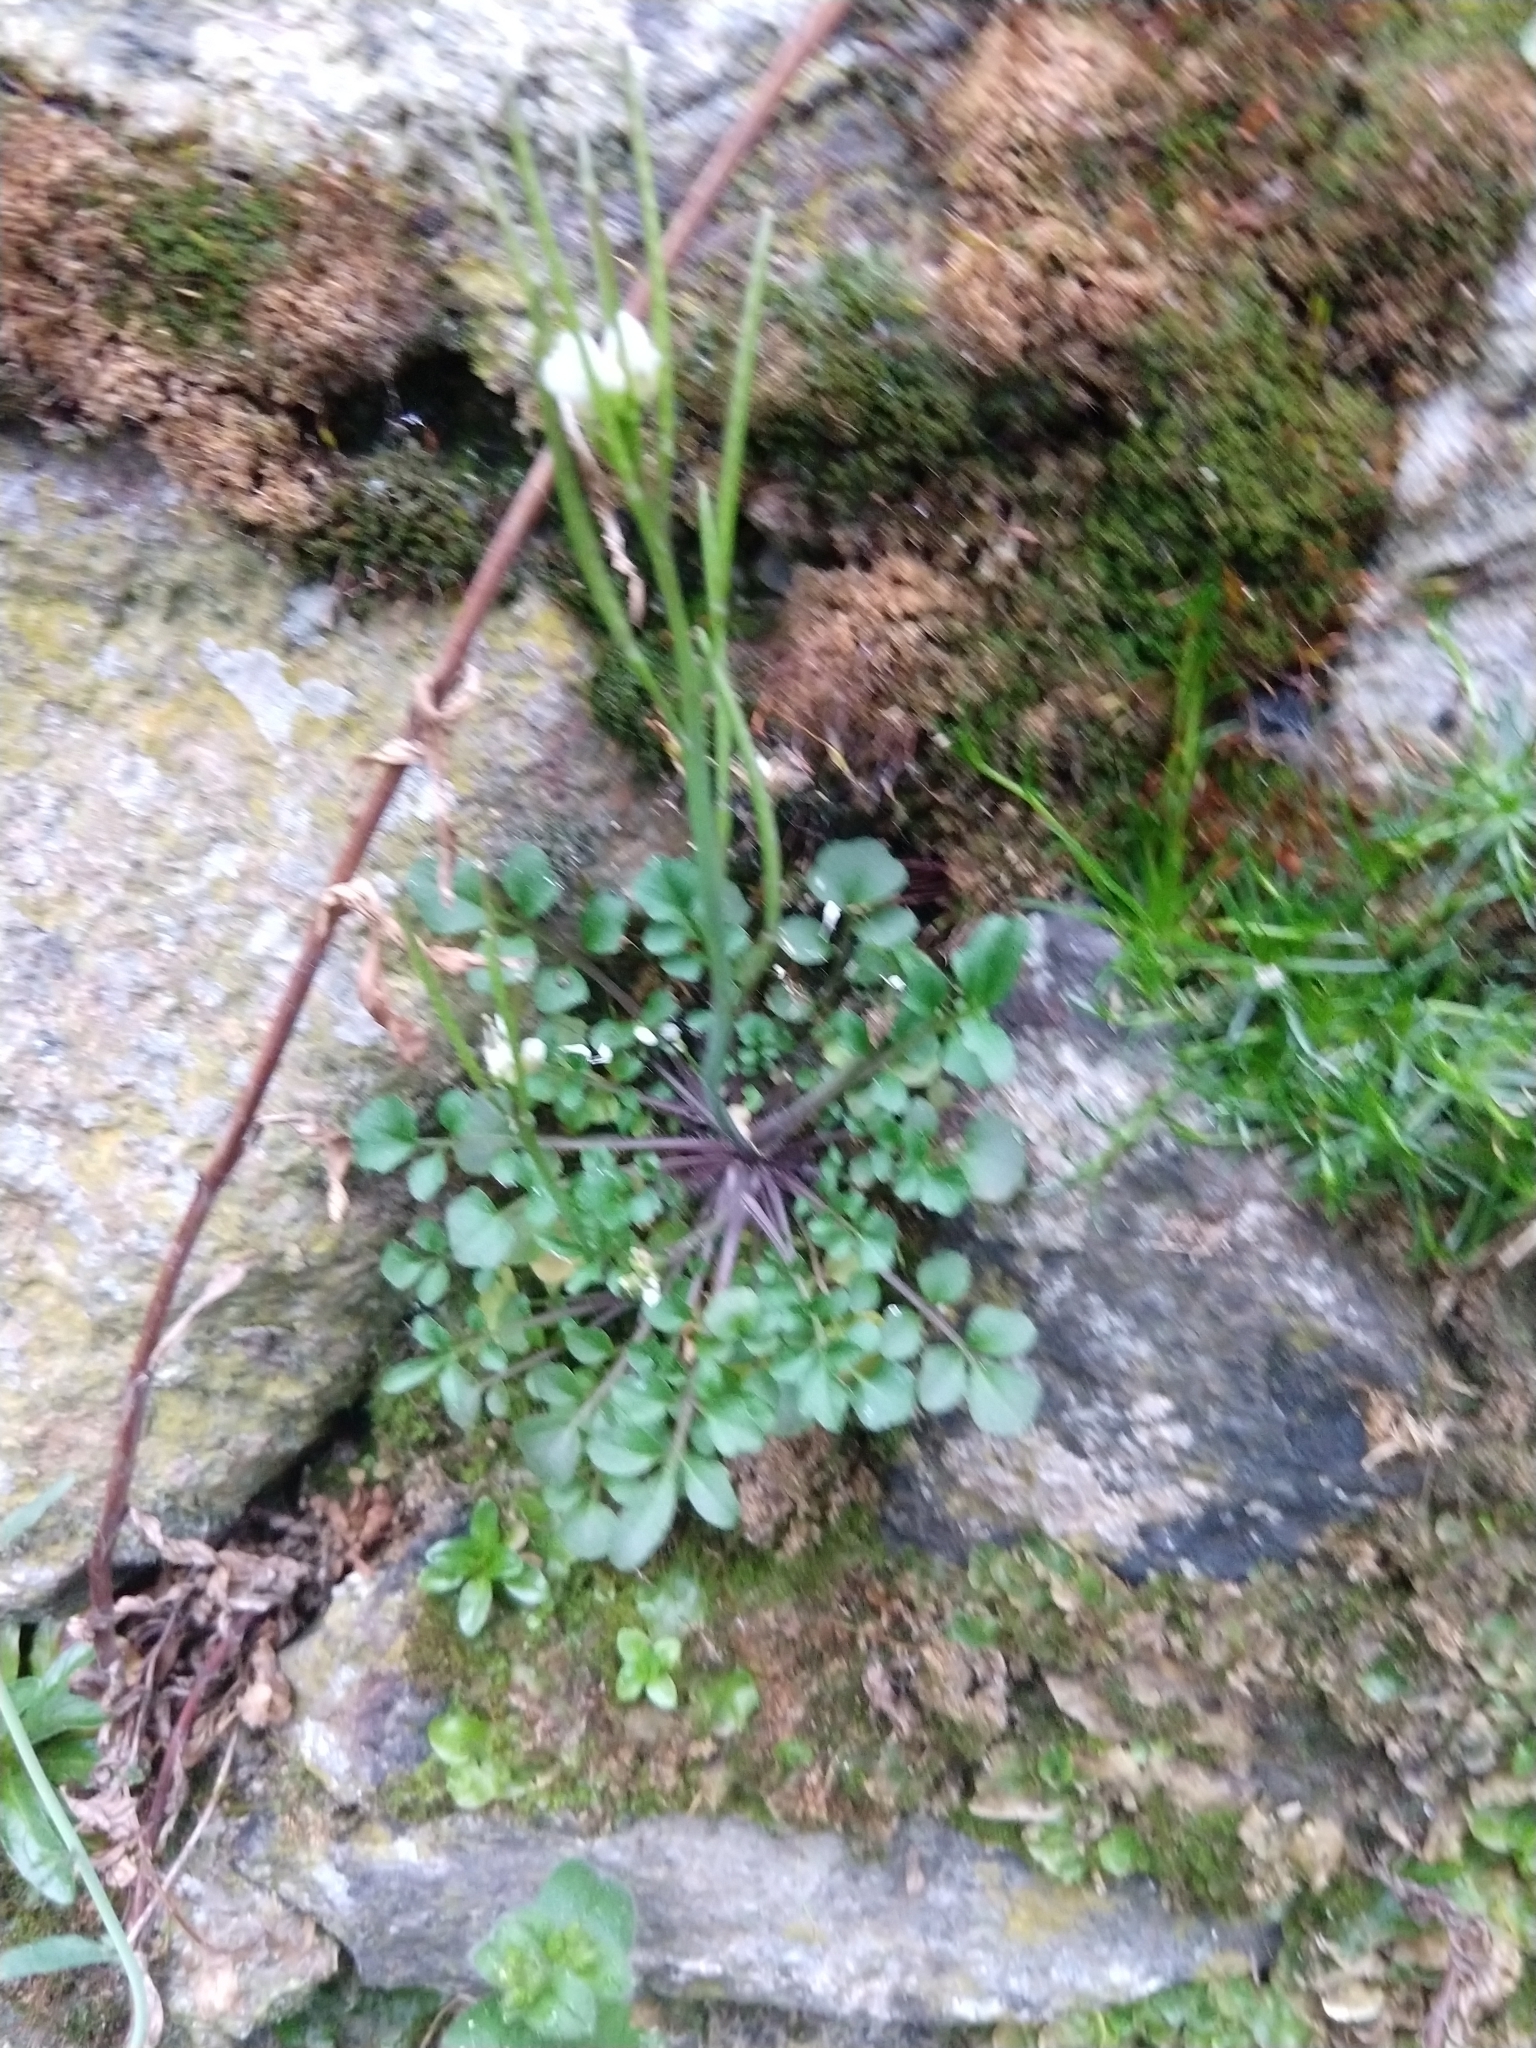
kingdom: Plantae
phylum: Tracheophyta
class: Magnoliopsida
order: Brassicales
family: Brassicaceae
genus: Cardamine
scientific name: Cardamine hirsuta
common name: Hairy bittercress
